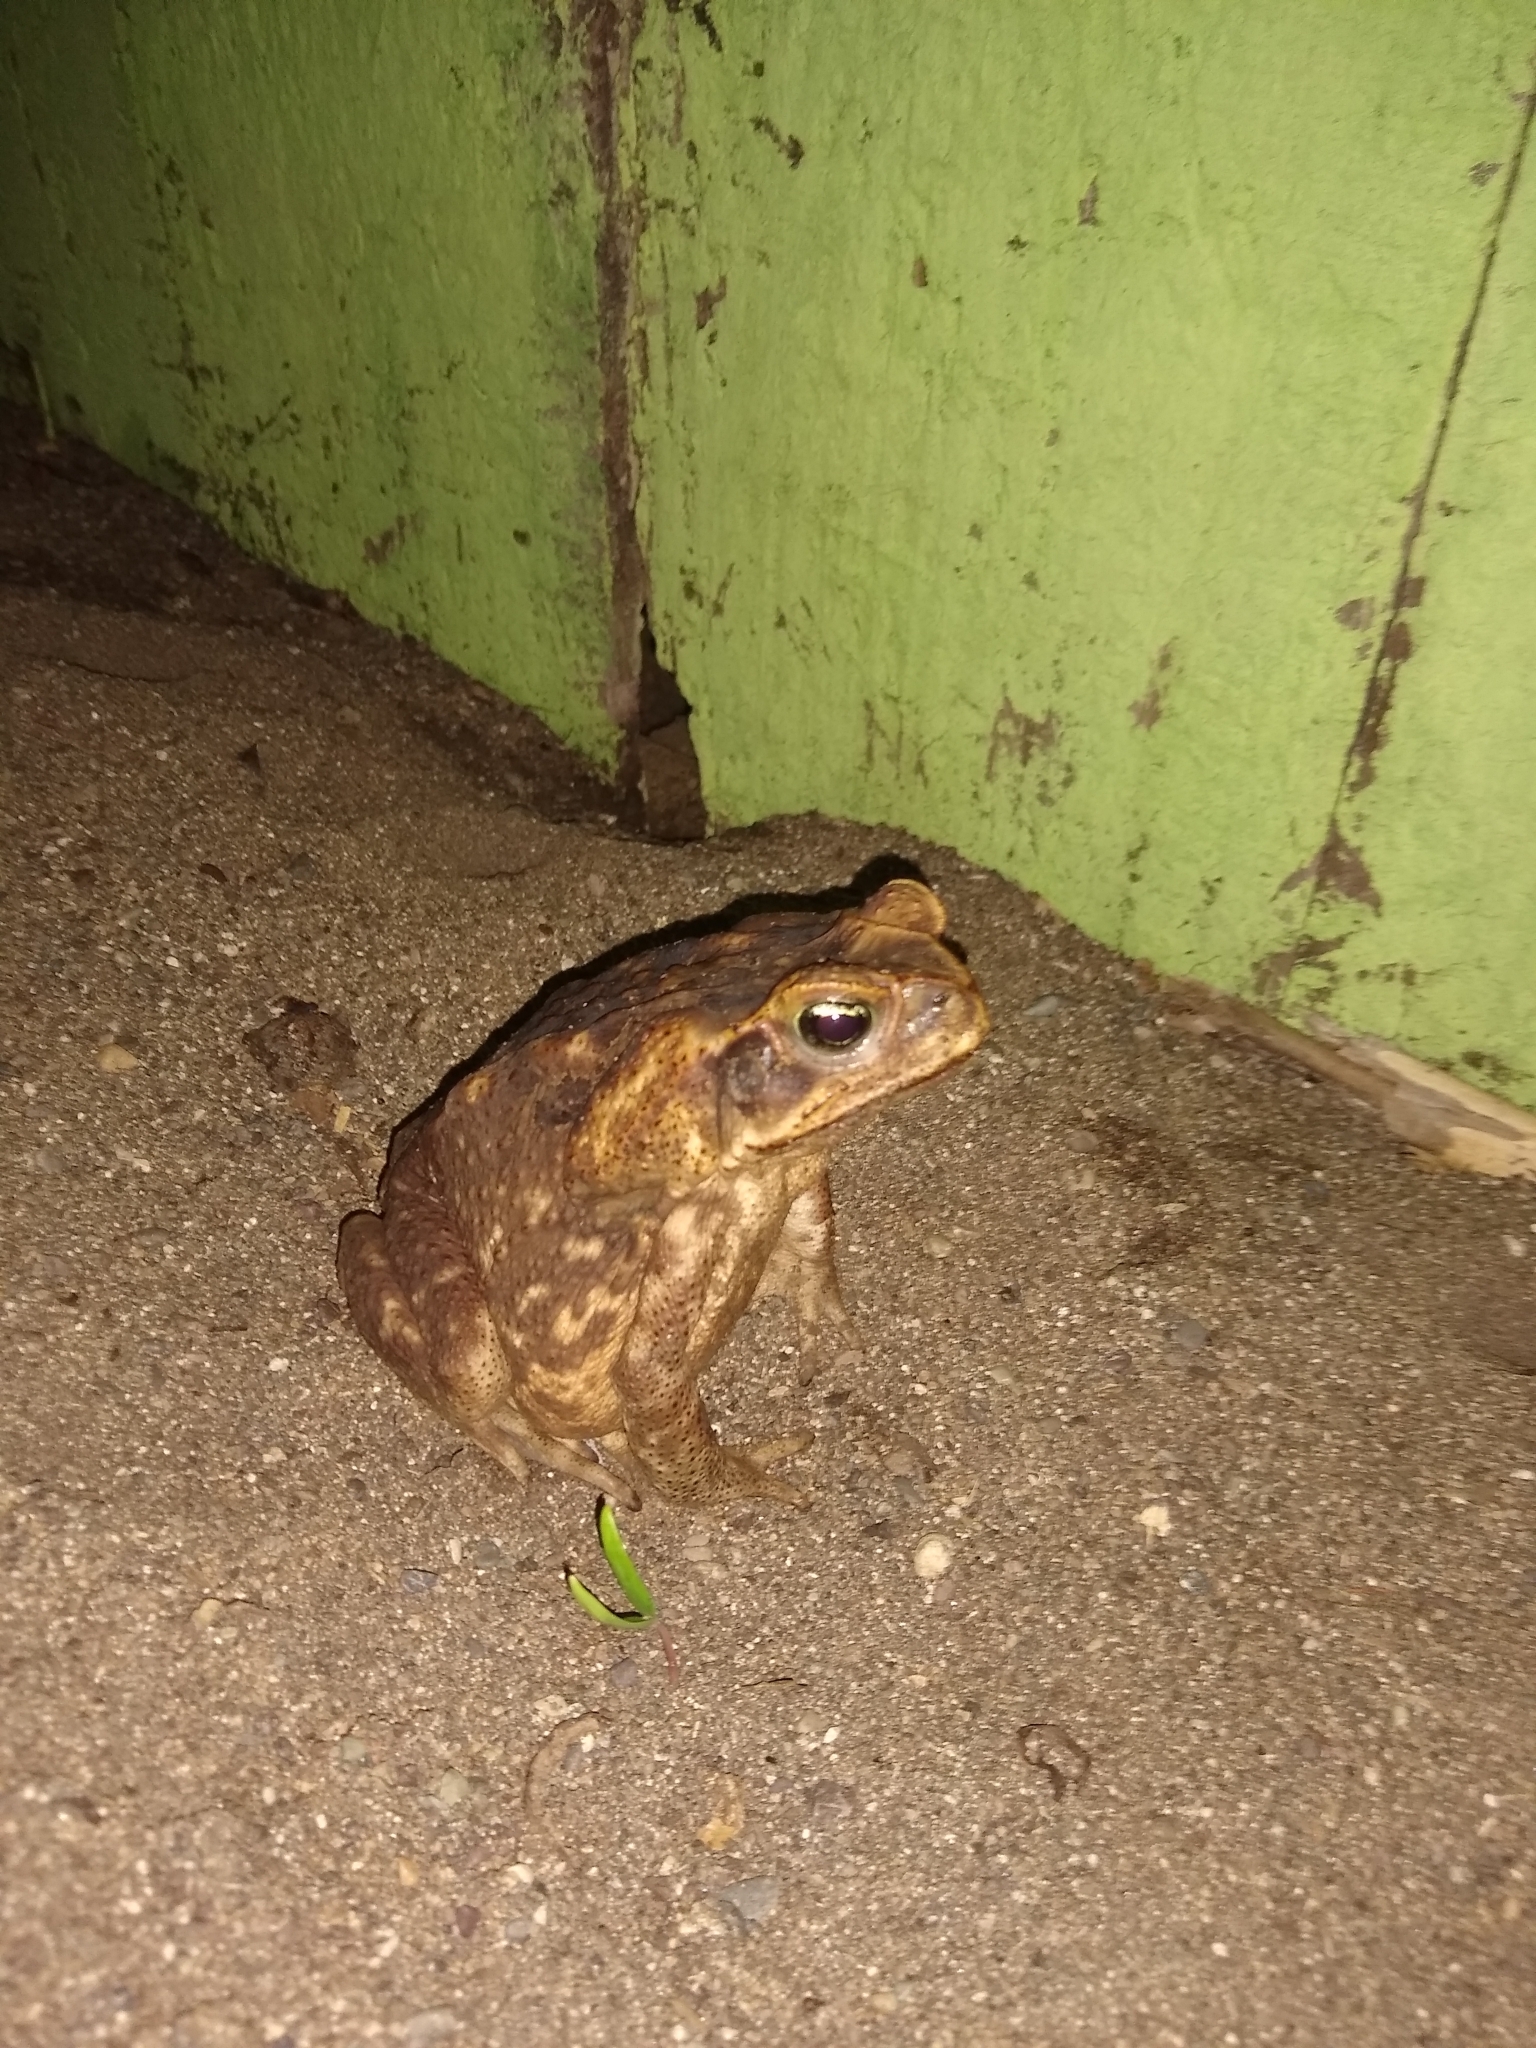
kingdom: Animalia
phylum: Chordata
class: Amphibia
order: Anura
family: Bufonidae
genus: Rhinella
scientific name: Rhinella horribilis
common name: Mesoamerican cane toad
